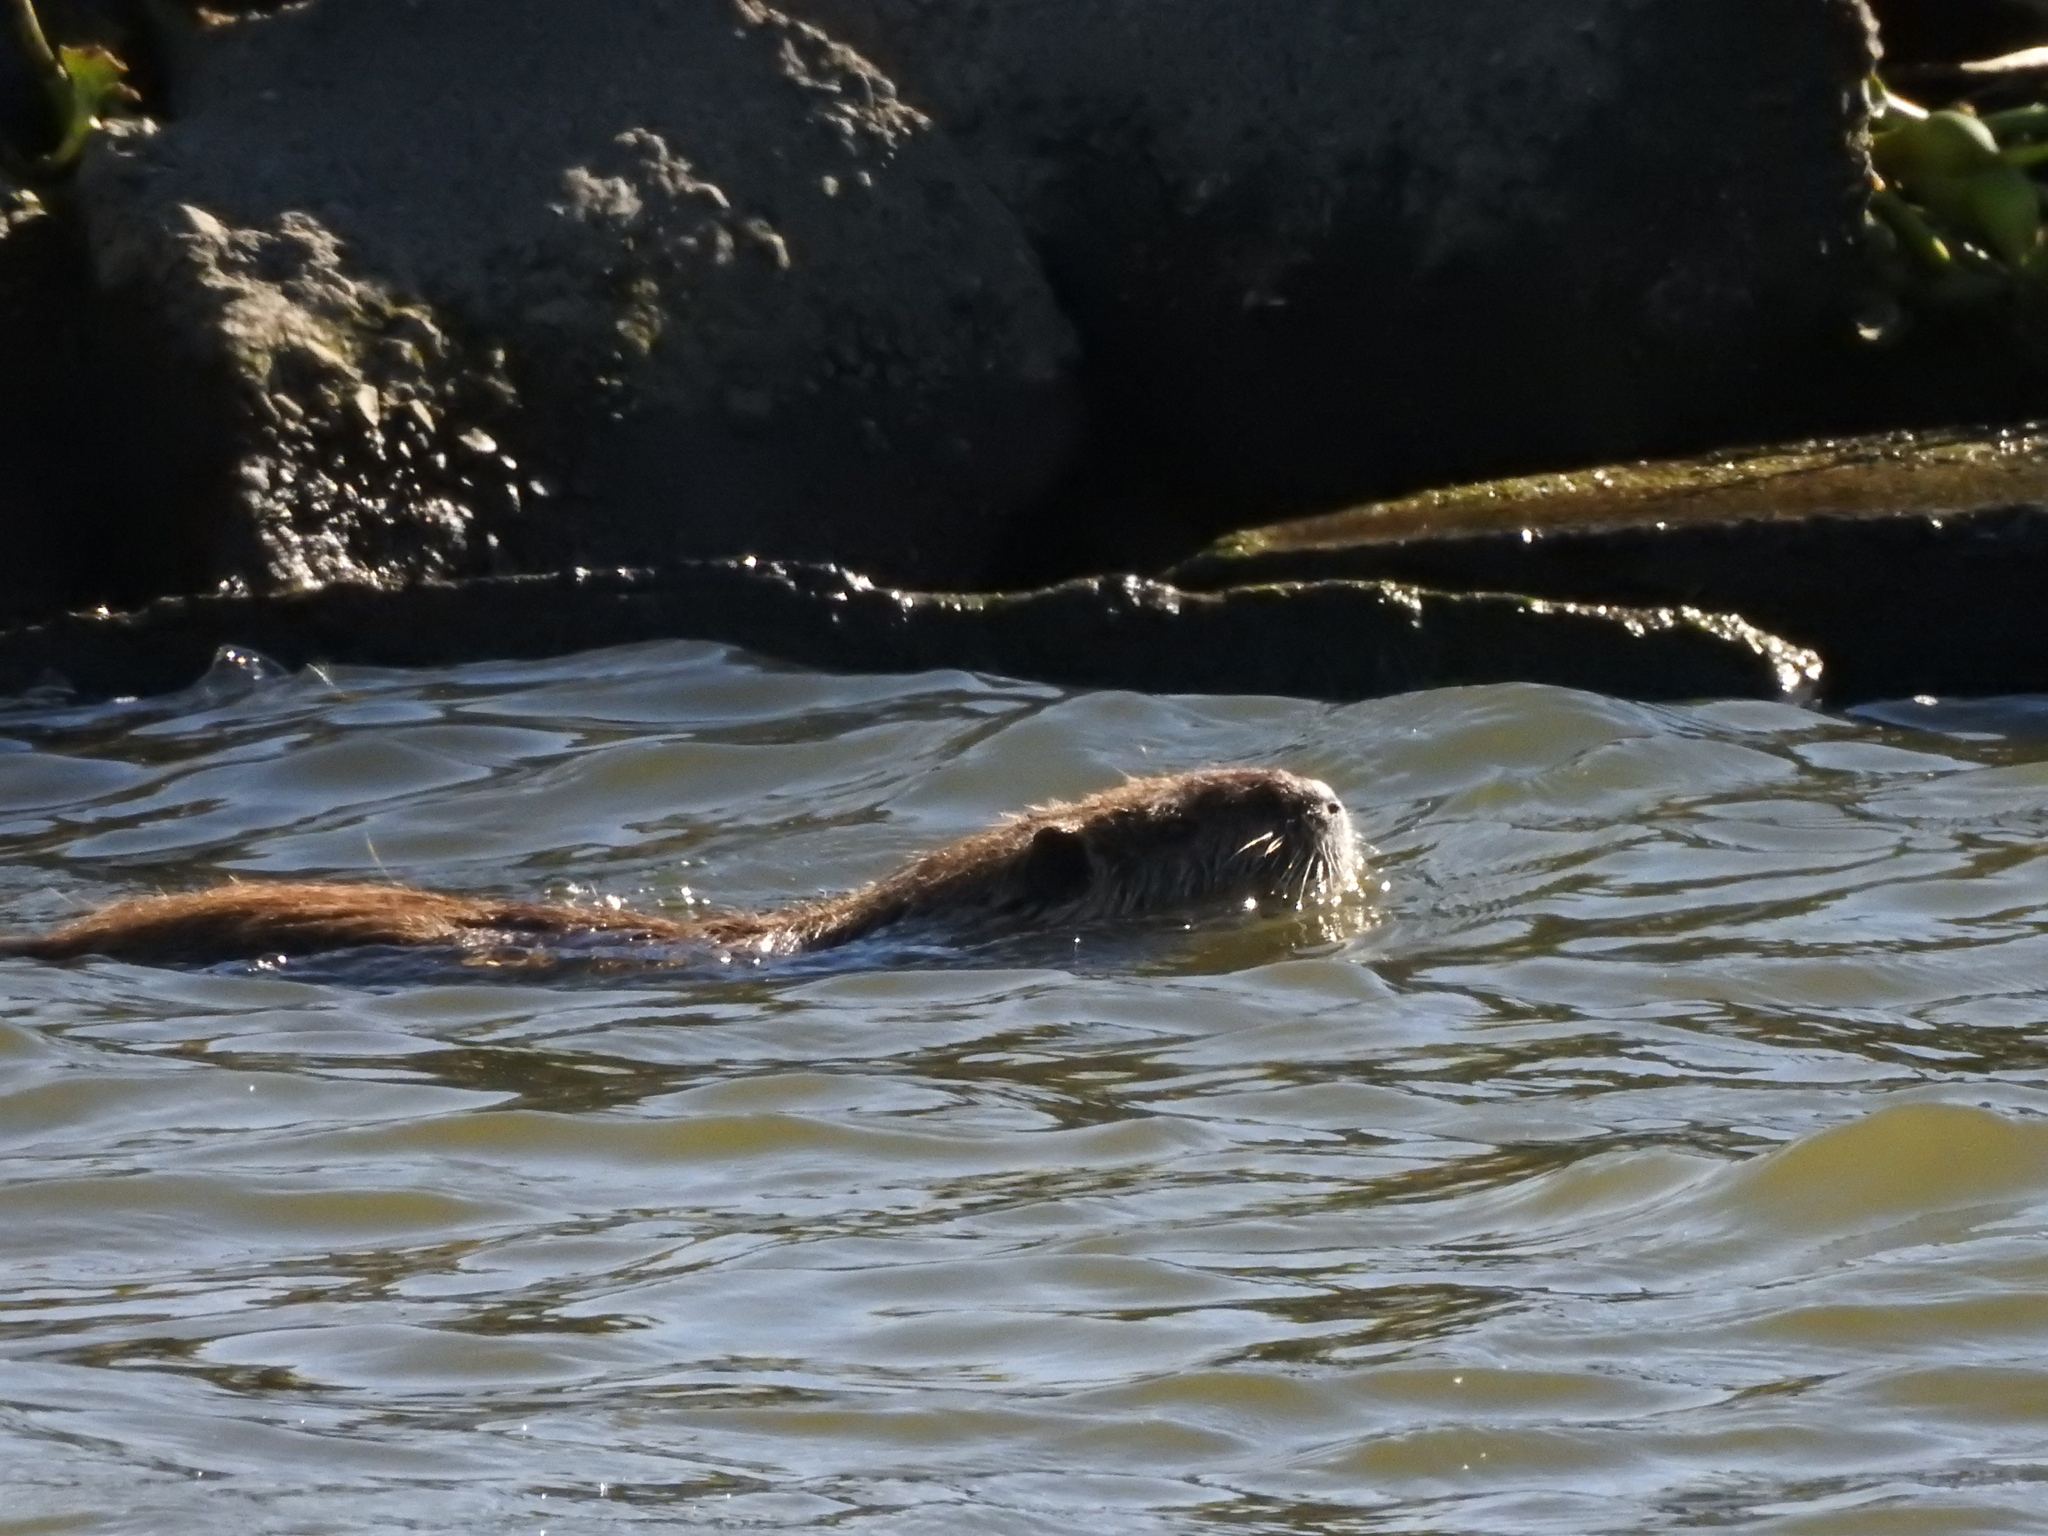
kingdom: Animalia
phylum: Chordata
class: Mammalia
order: Rodentia
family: Myocastoridae
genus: Myocastor
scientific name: Myocastor coypus
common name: Coypu
